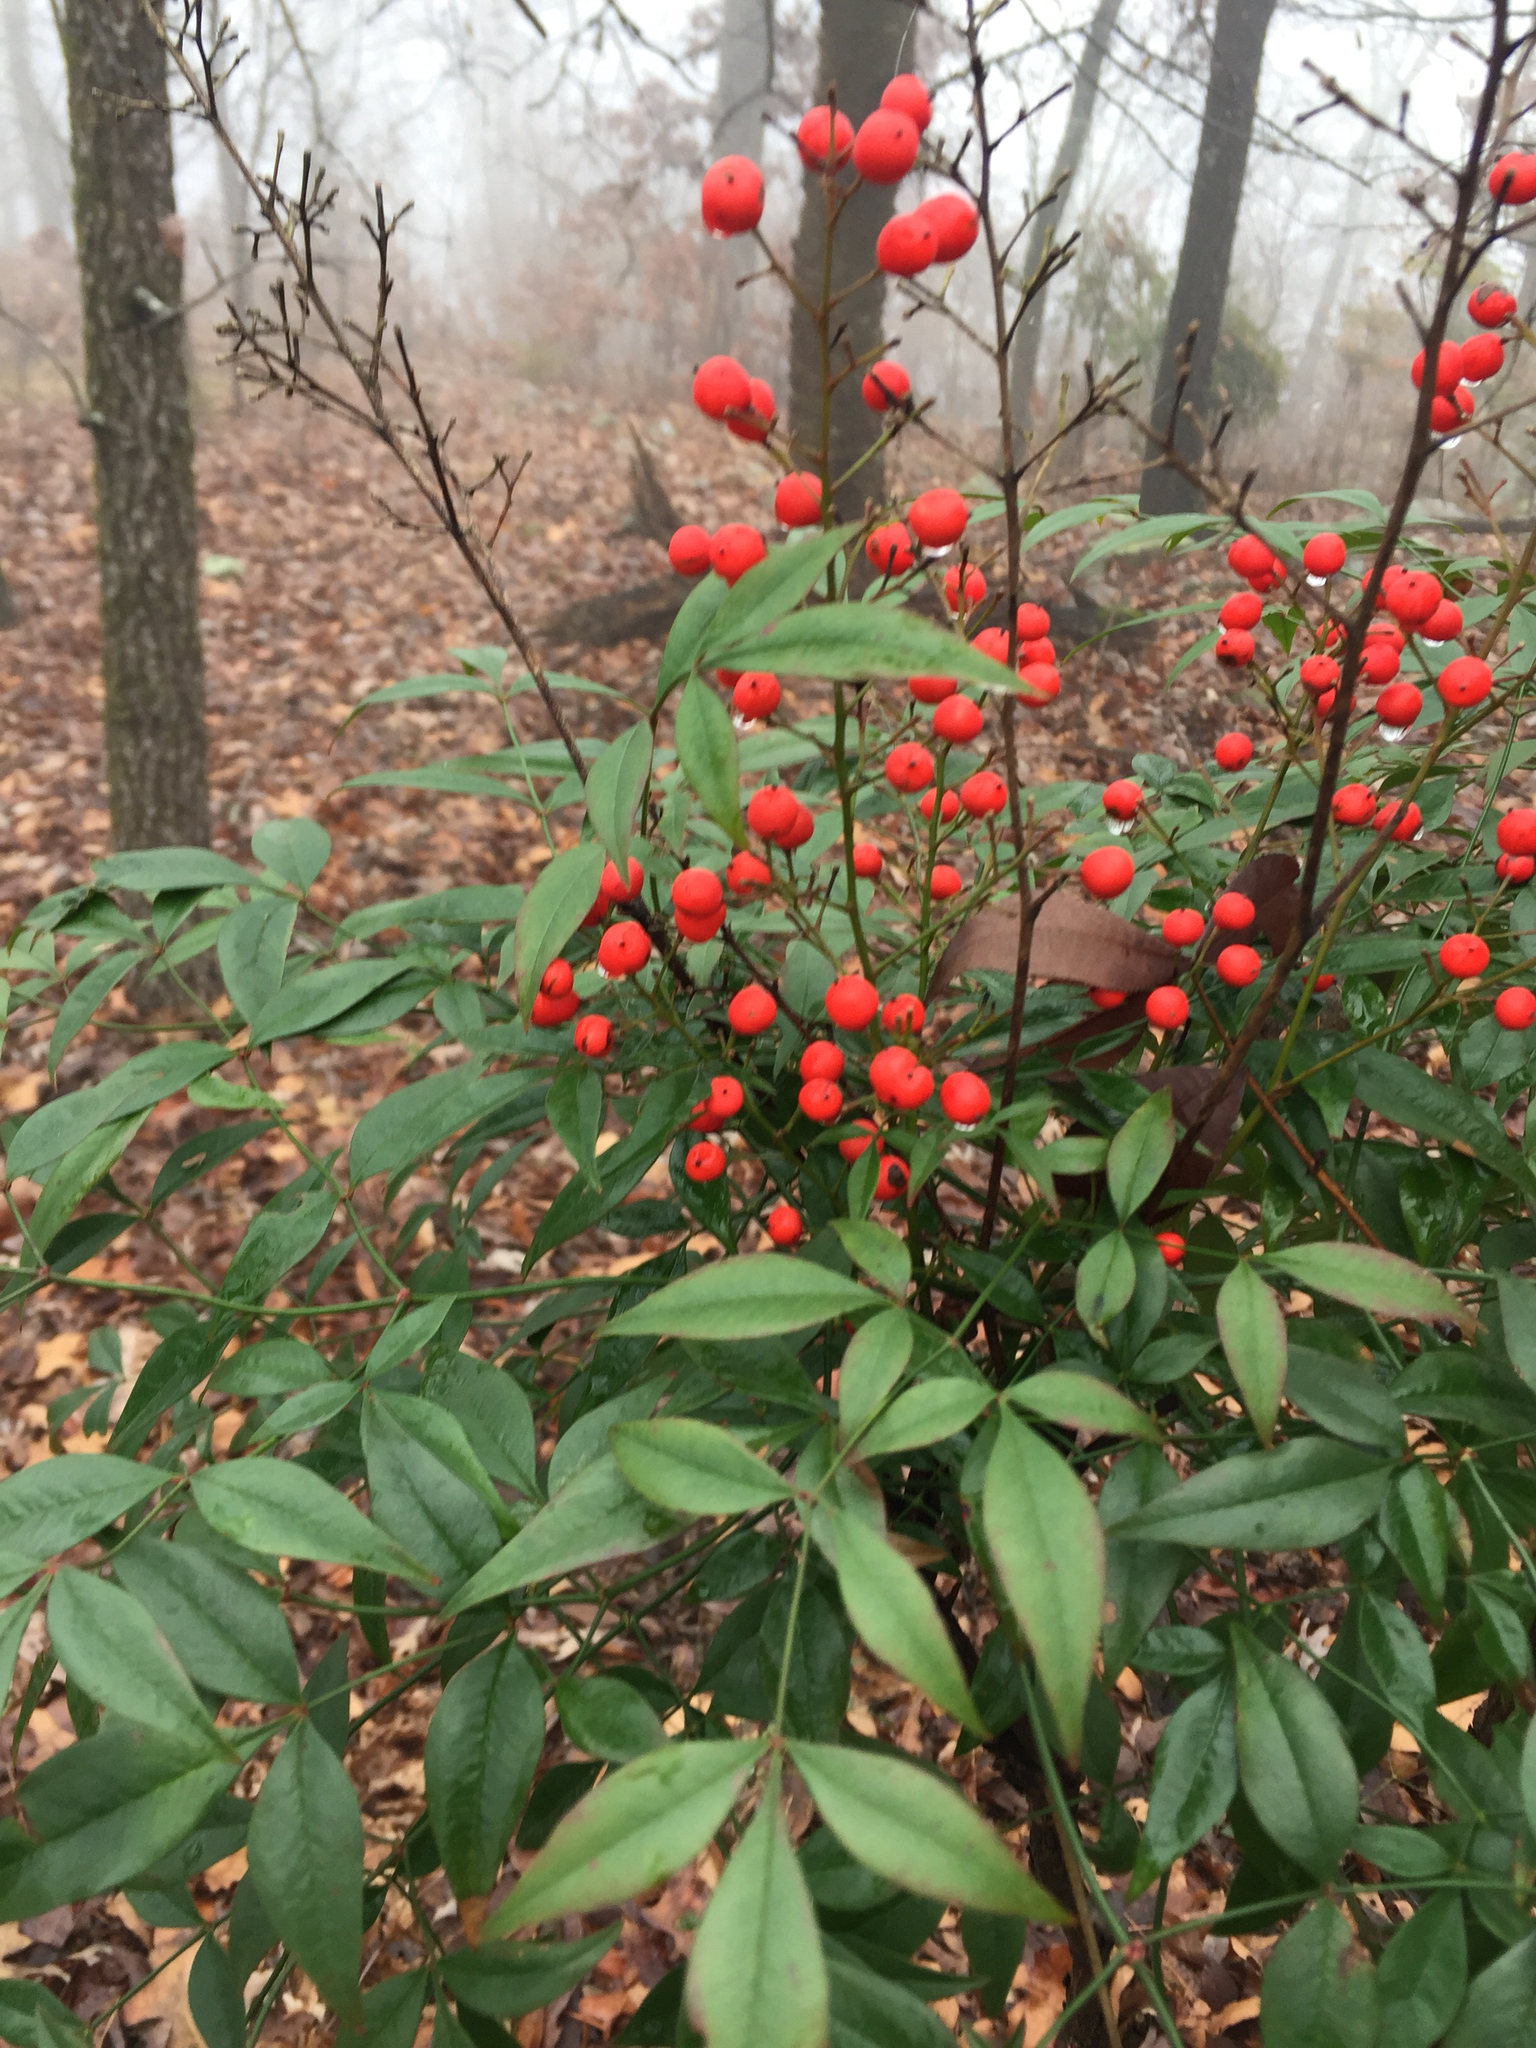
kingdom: Plantae
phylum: Tracheophyta
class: Magnoliopsida
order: Ranunculales
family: Berberidaceae
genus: Nandina
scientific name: Nandina domestica
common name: Sacred bamboo
